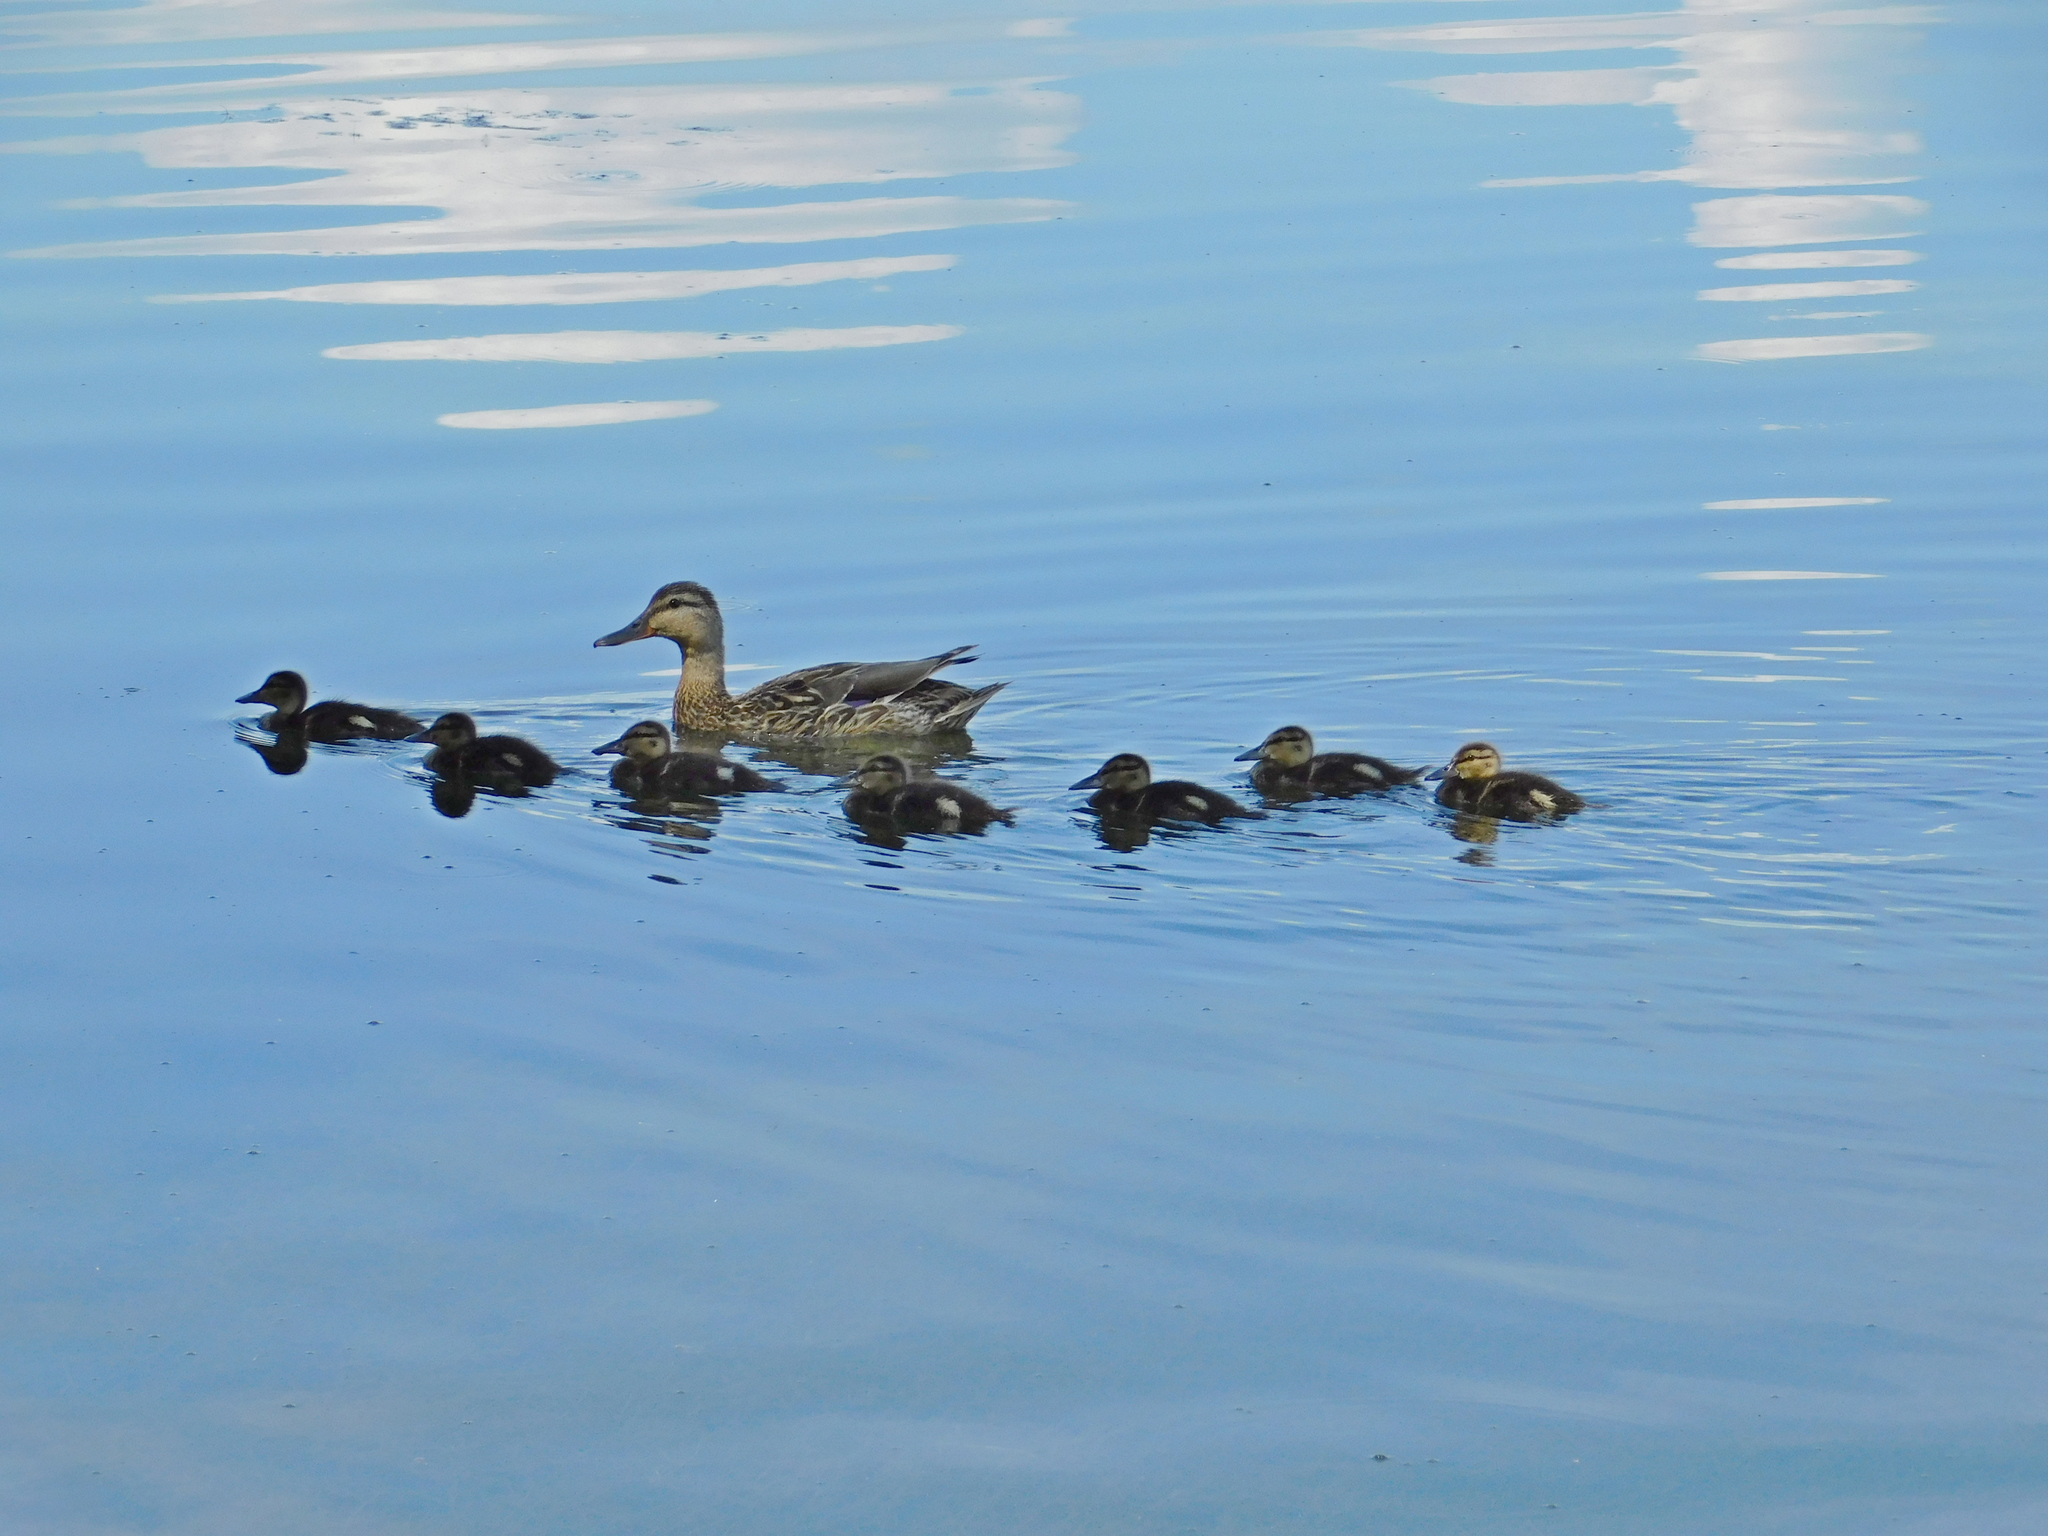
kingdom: Animalia
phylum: Chordata
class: Aves
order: Anseriformes
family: Anatidae
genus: Anas
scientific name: Anas platyrhynchos
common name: Mallard
